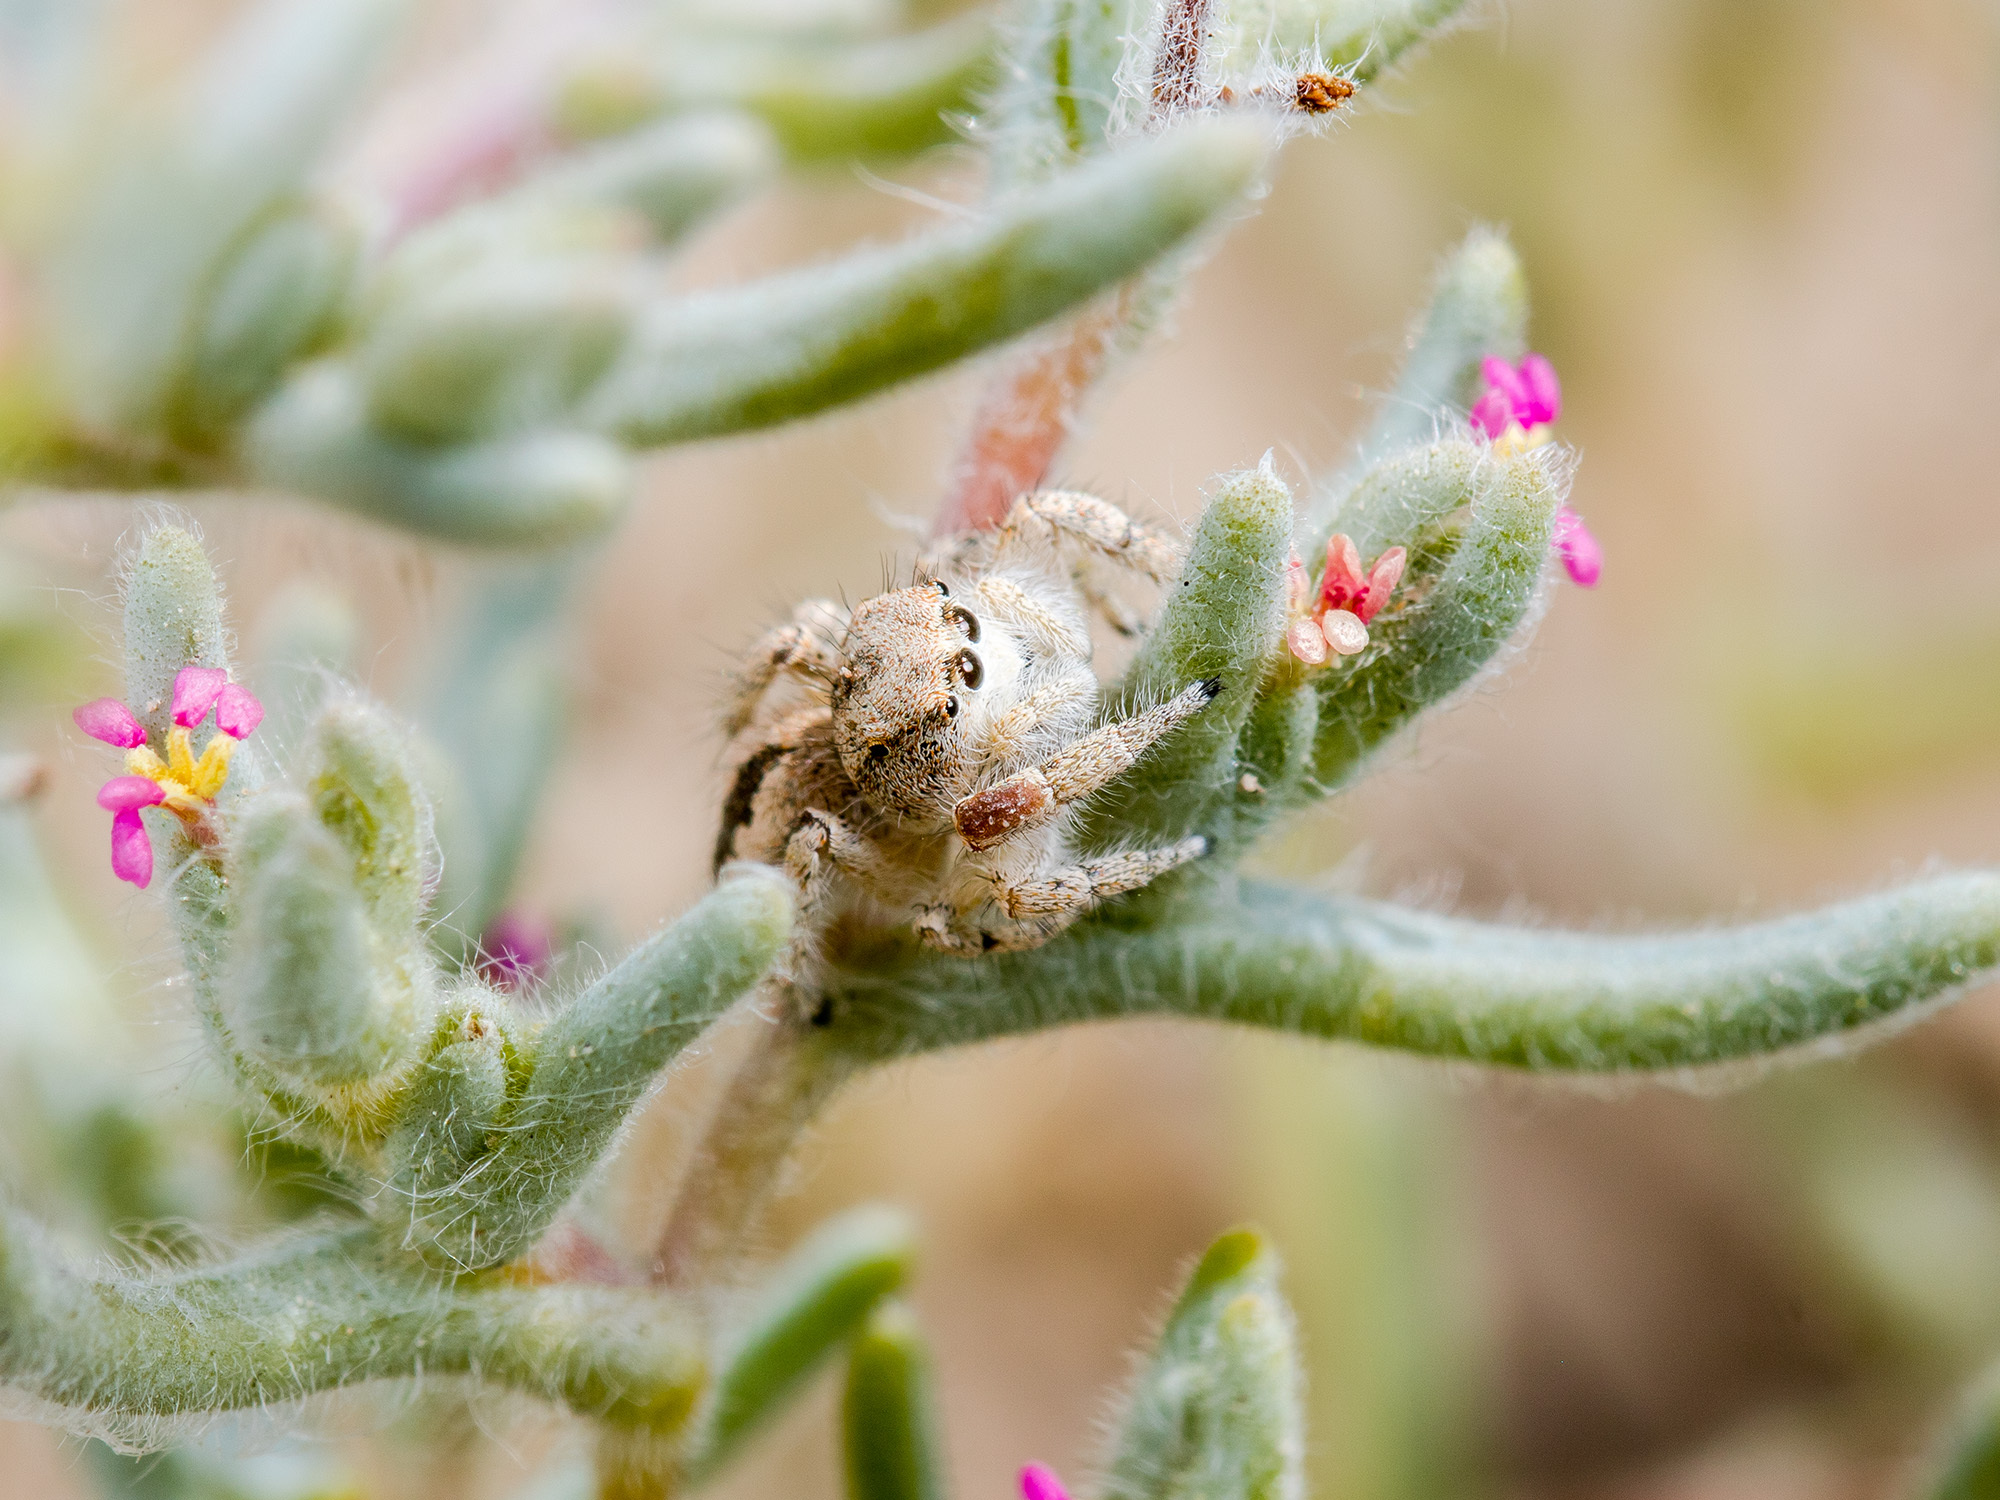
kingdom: Animalia
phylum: Arthropoda
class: Arachnida
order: Araneae
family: Salticidae
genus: Pseudomogrus
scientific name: Pseudomogrus guseinovi
